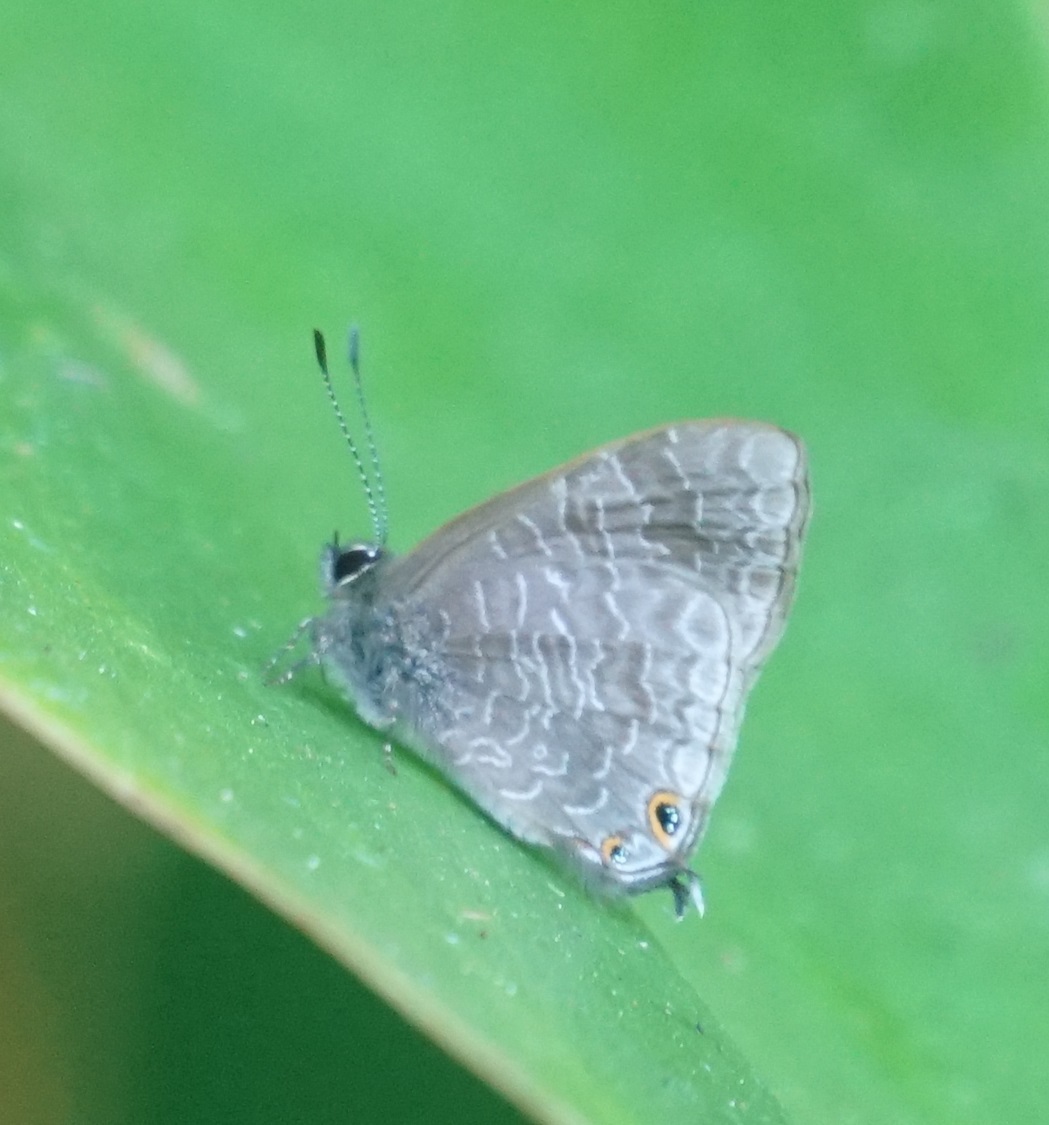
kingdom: Animalia
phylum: Arthropoda
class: Insecta
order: Lepidoptera
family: Lycaenidae
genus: Erysichton
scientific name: Erysichton lineata
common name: Hairy line blue
